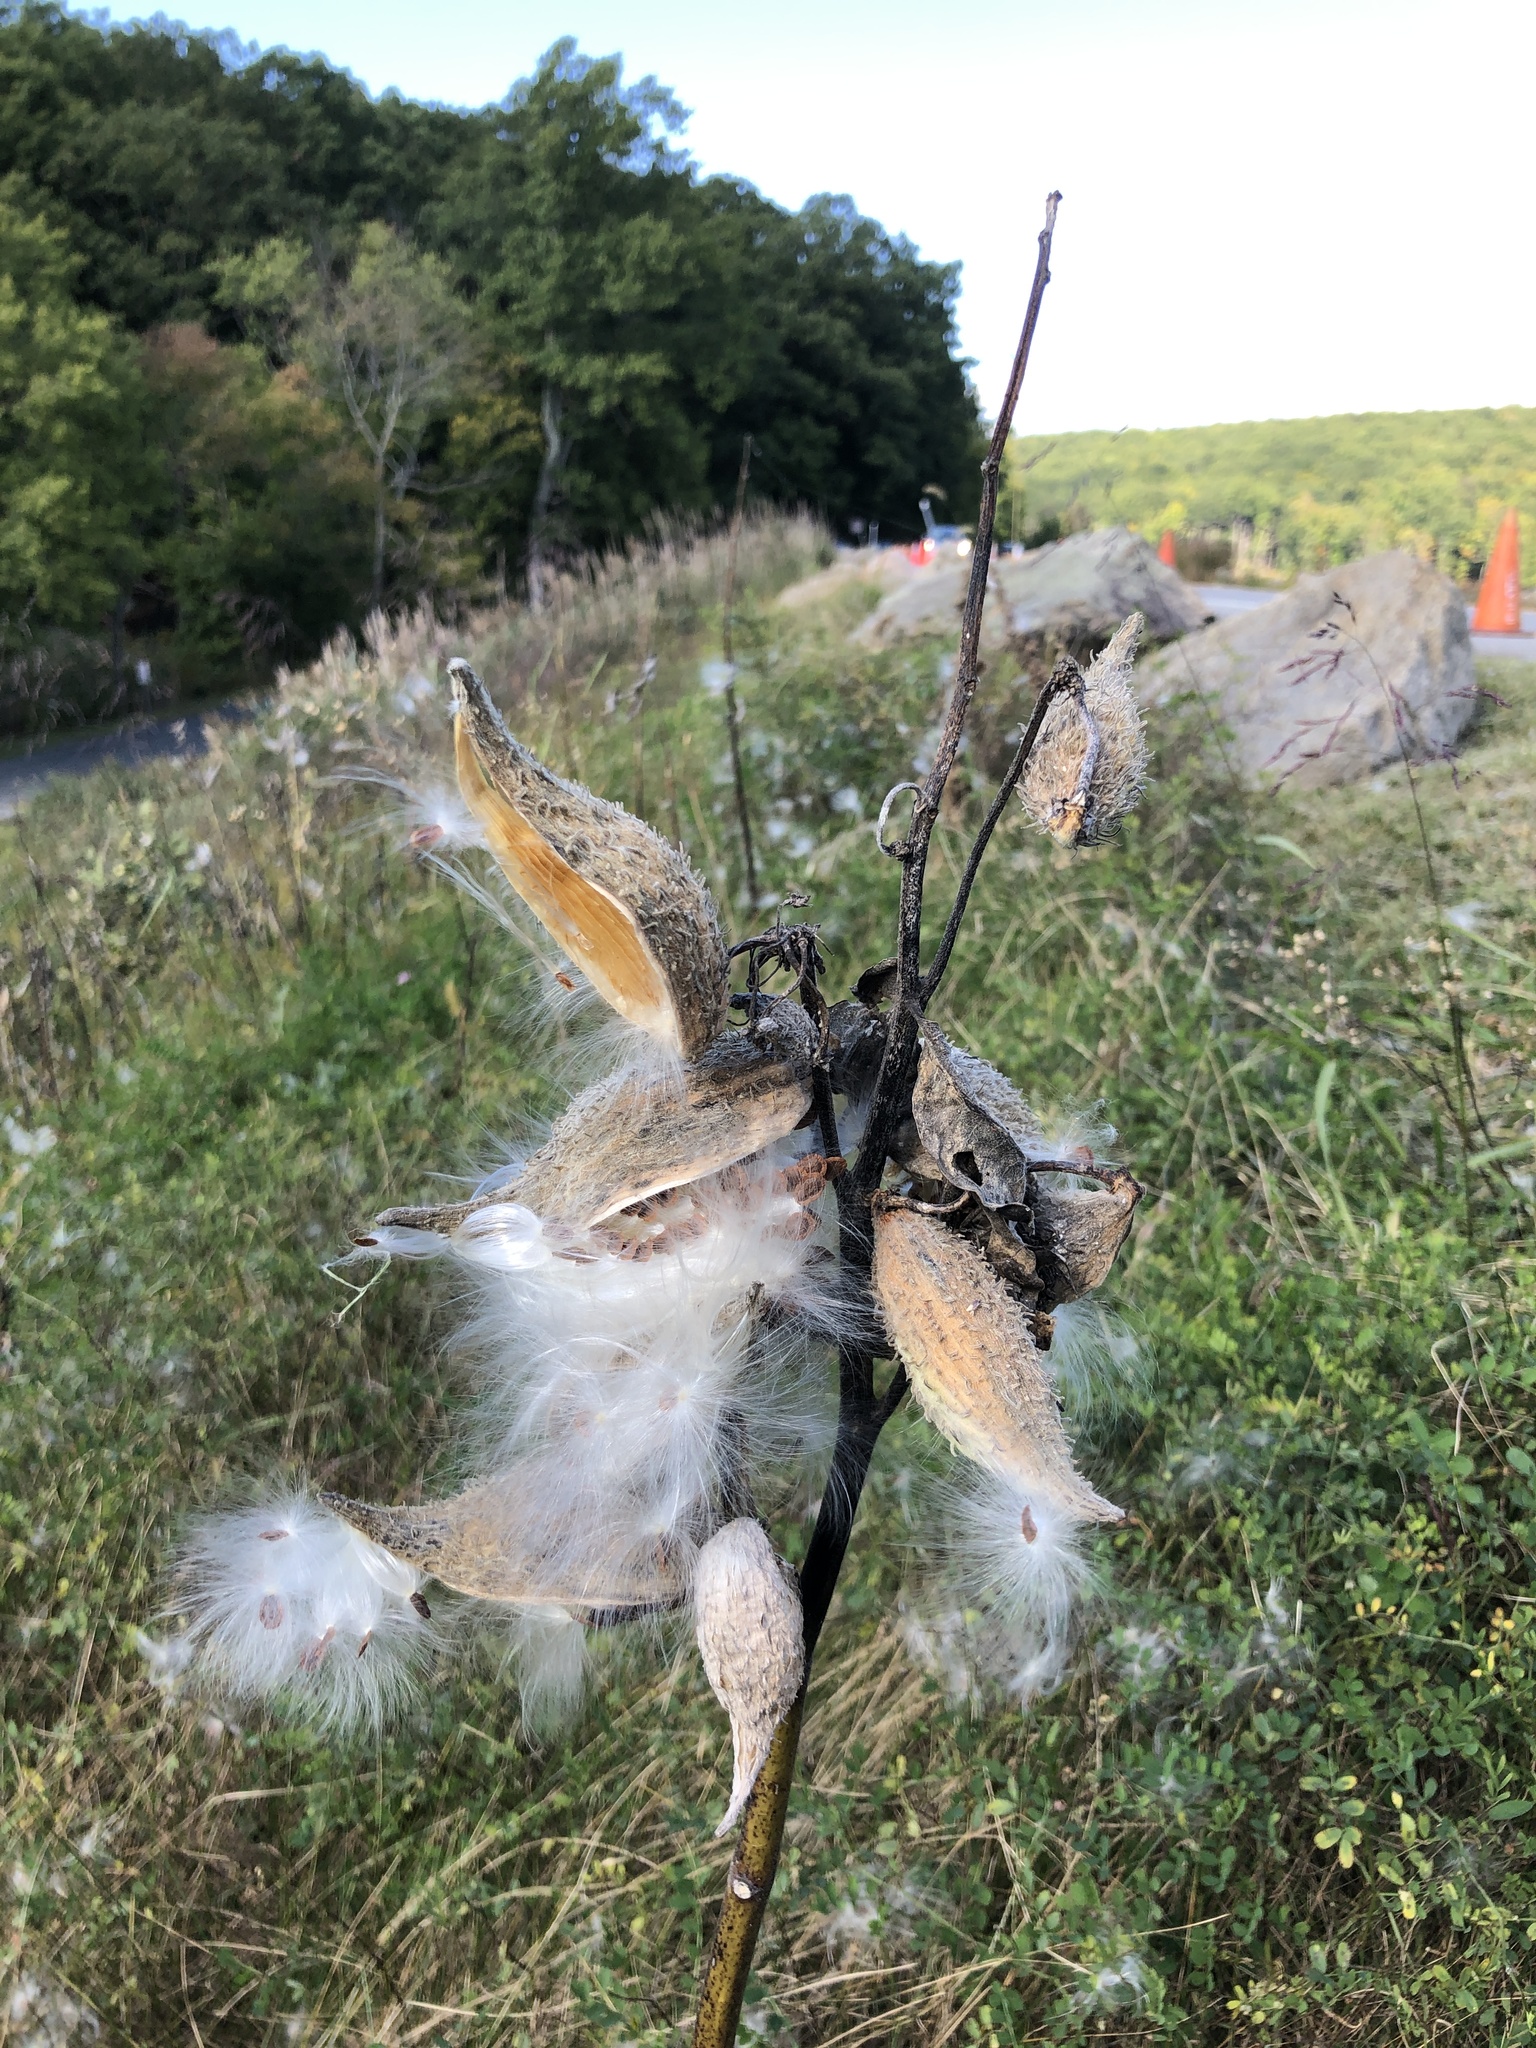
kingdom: Plantae
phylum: Tracheophyta
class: Magnoliopsida
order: Gentianales
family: Apocynaceae
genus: Asclepias
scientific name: Asclepias syriaca
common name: Common milkweed
